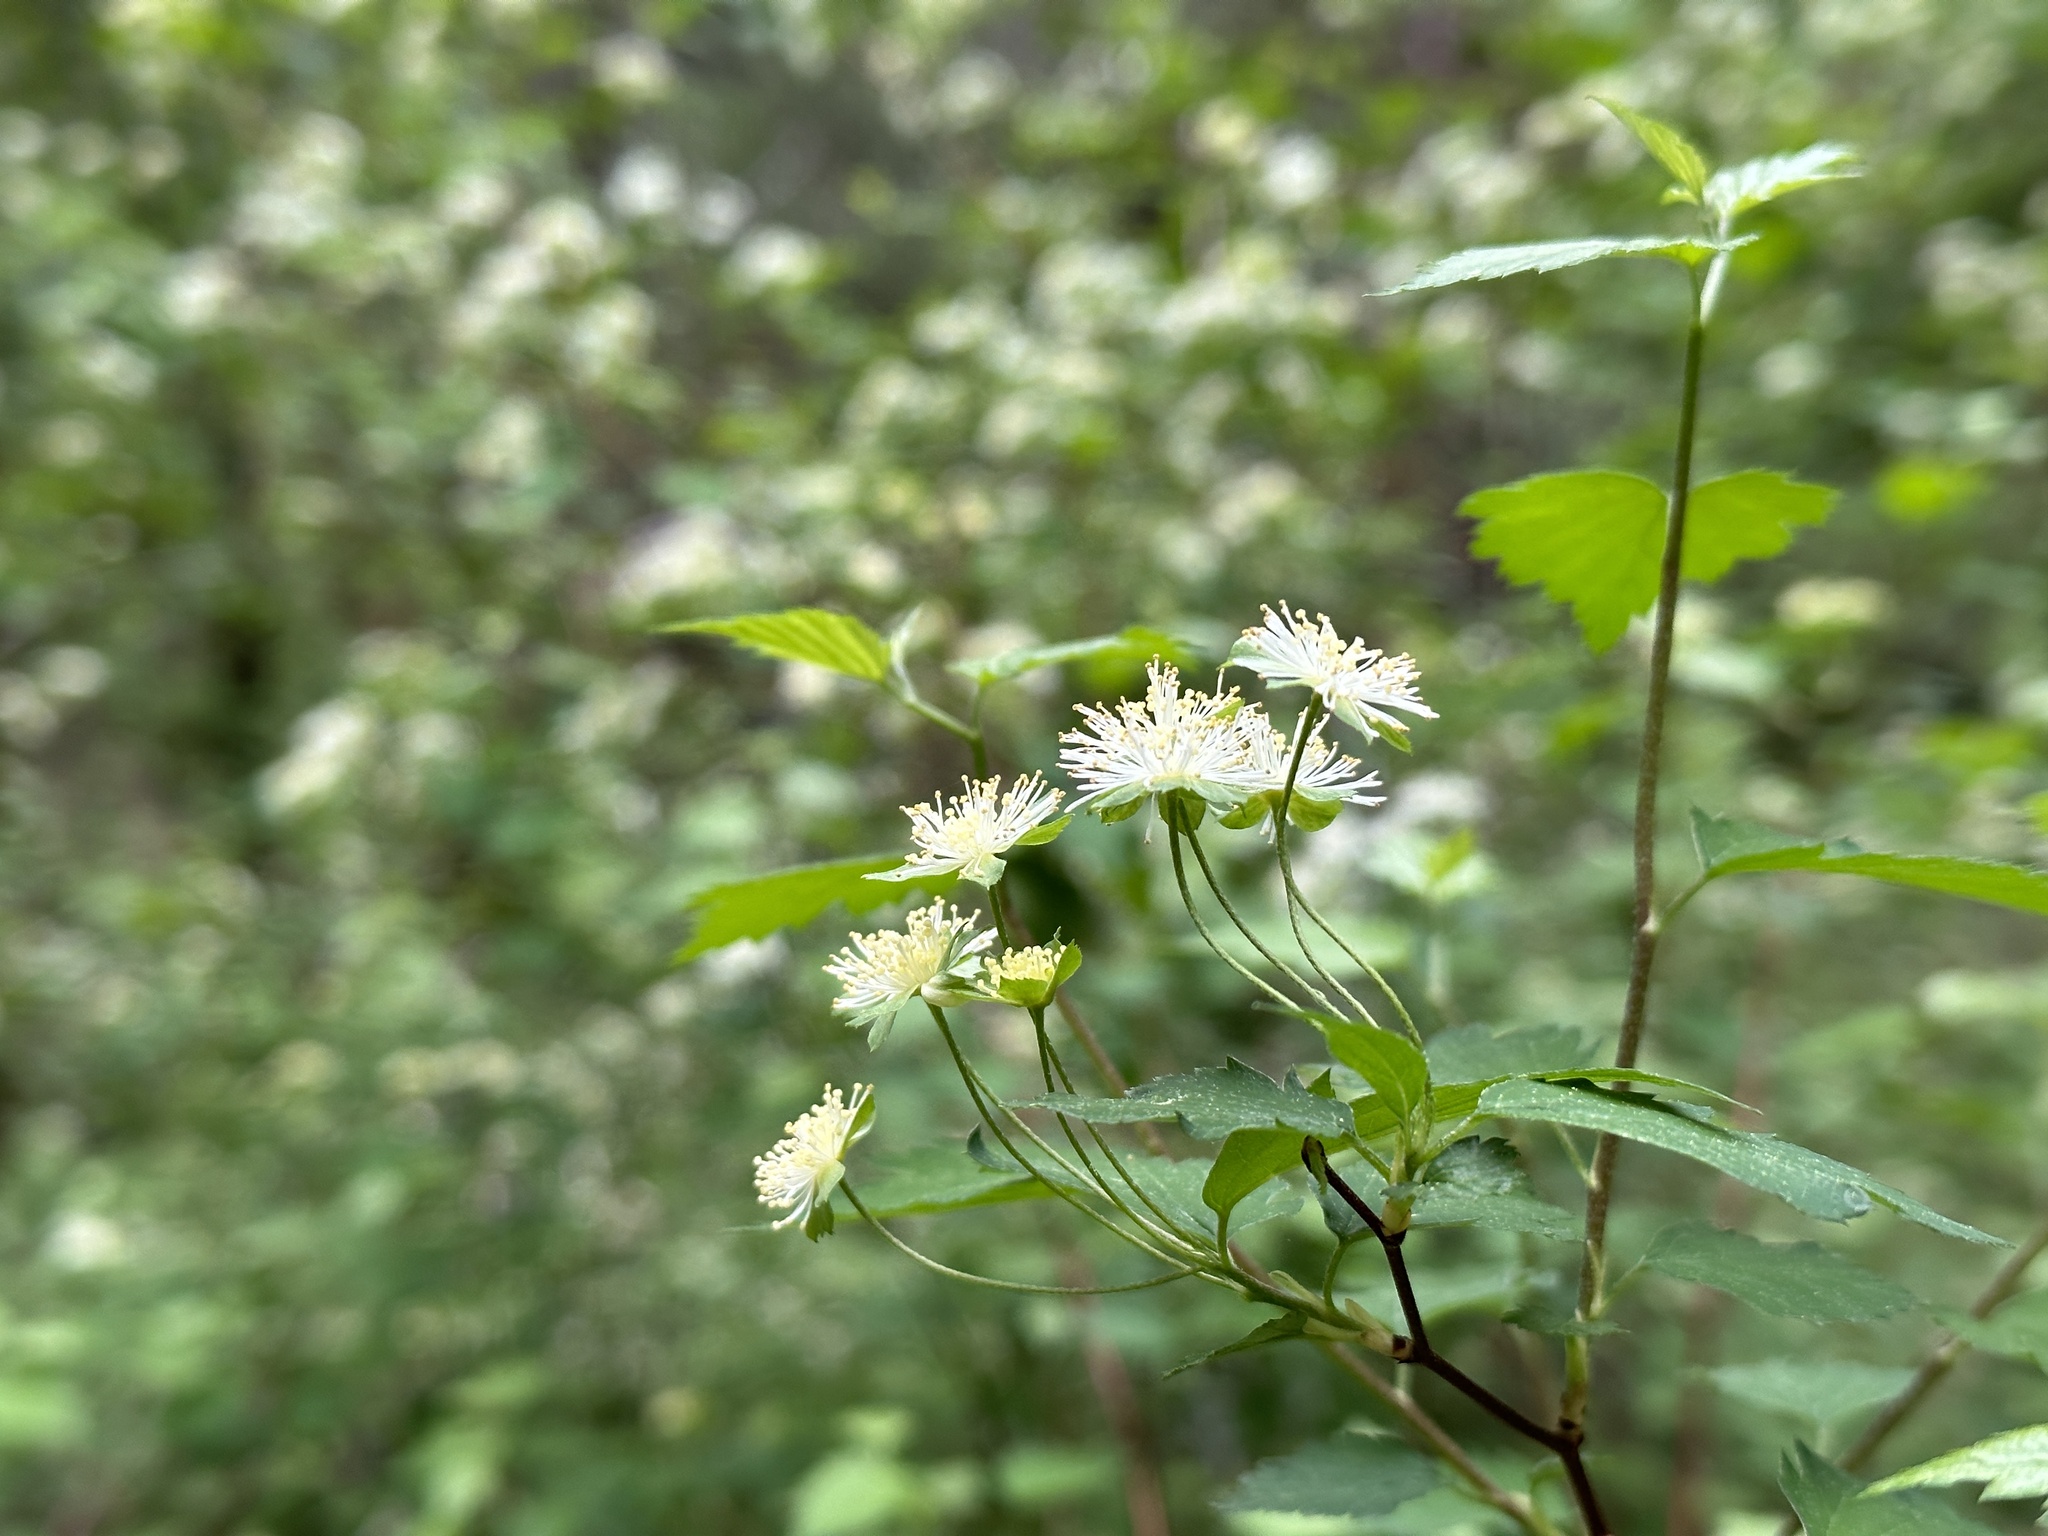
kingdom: Plantae
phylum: Tracheophyta
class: Magnoliopsida
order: Rosales
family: Rosaceae
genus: Neviusia
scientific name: Neviusia cliftonii
